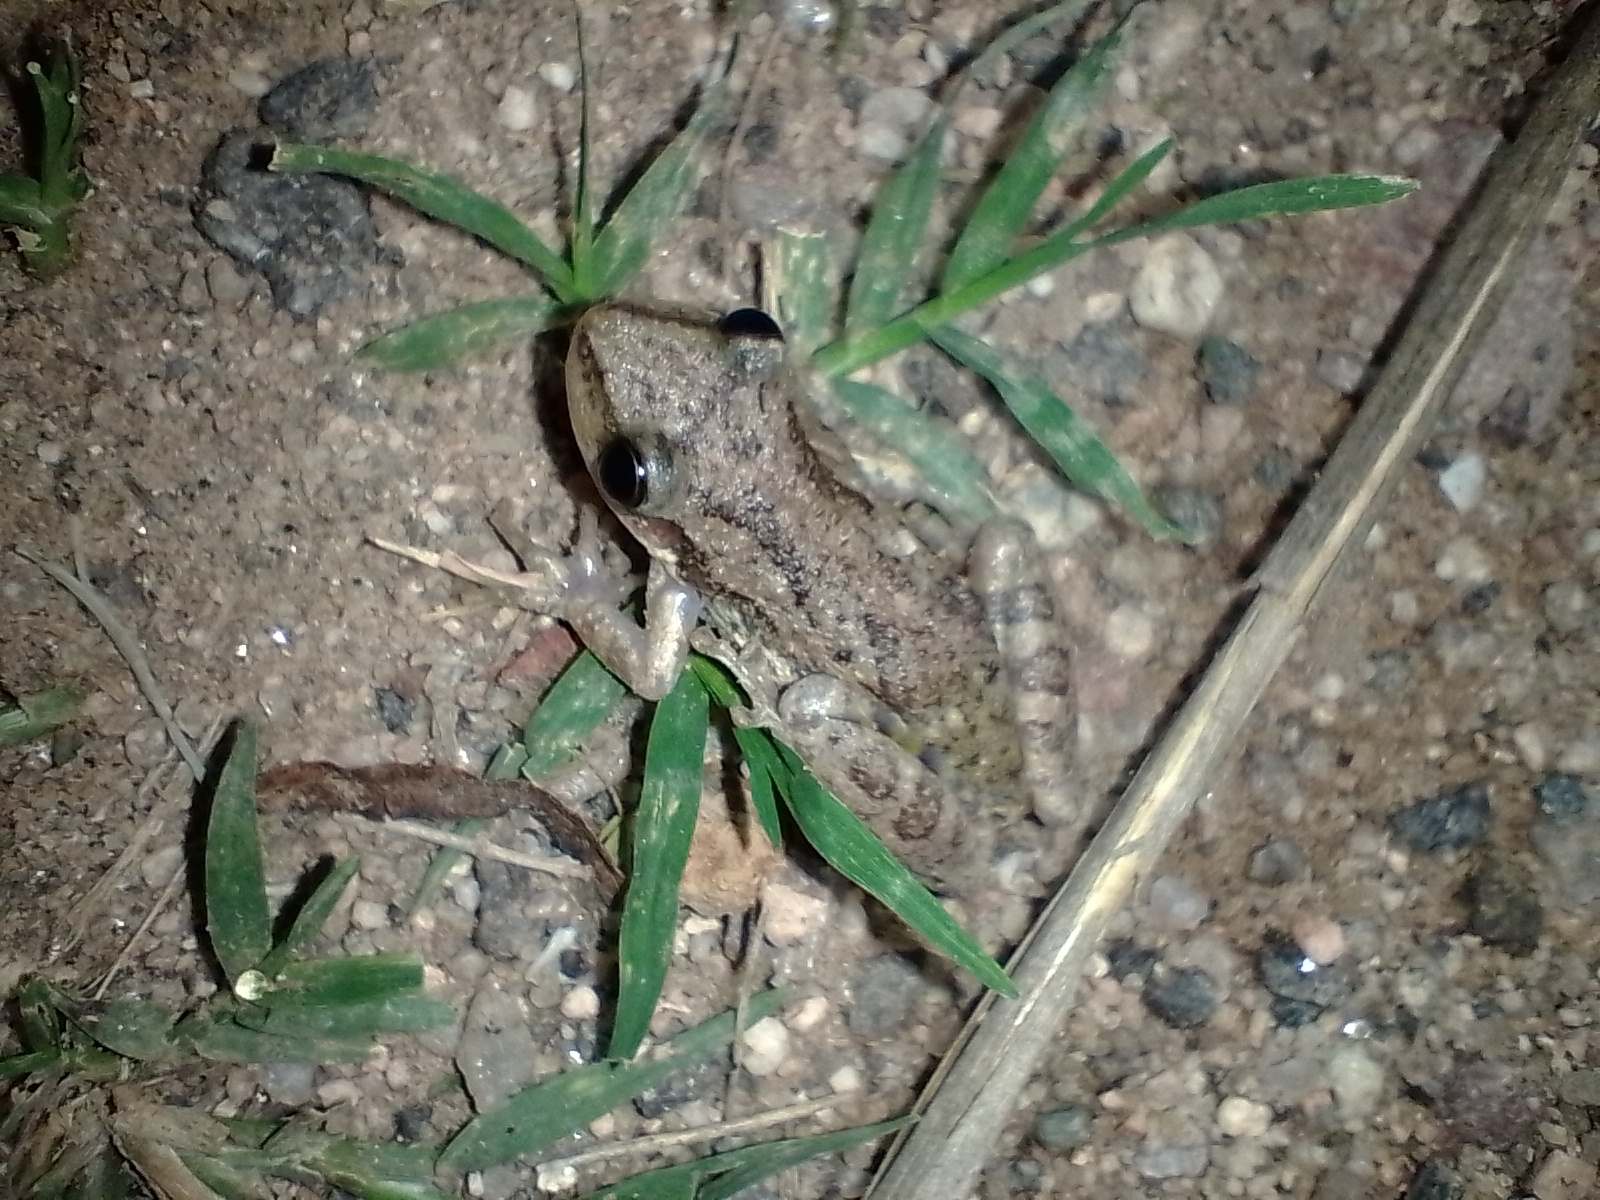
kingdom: Animalia
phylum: Chordata
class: Amphibia
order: Anura
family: Hylidae
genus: Scinax
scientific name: Scinax nasicus
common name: Lesser snouted treefrog
